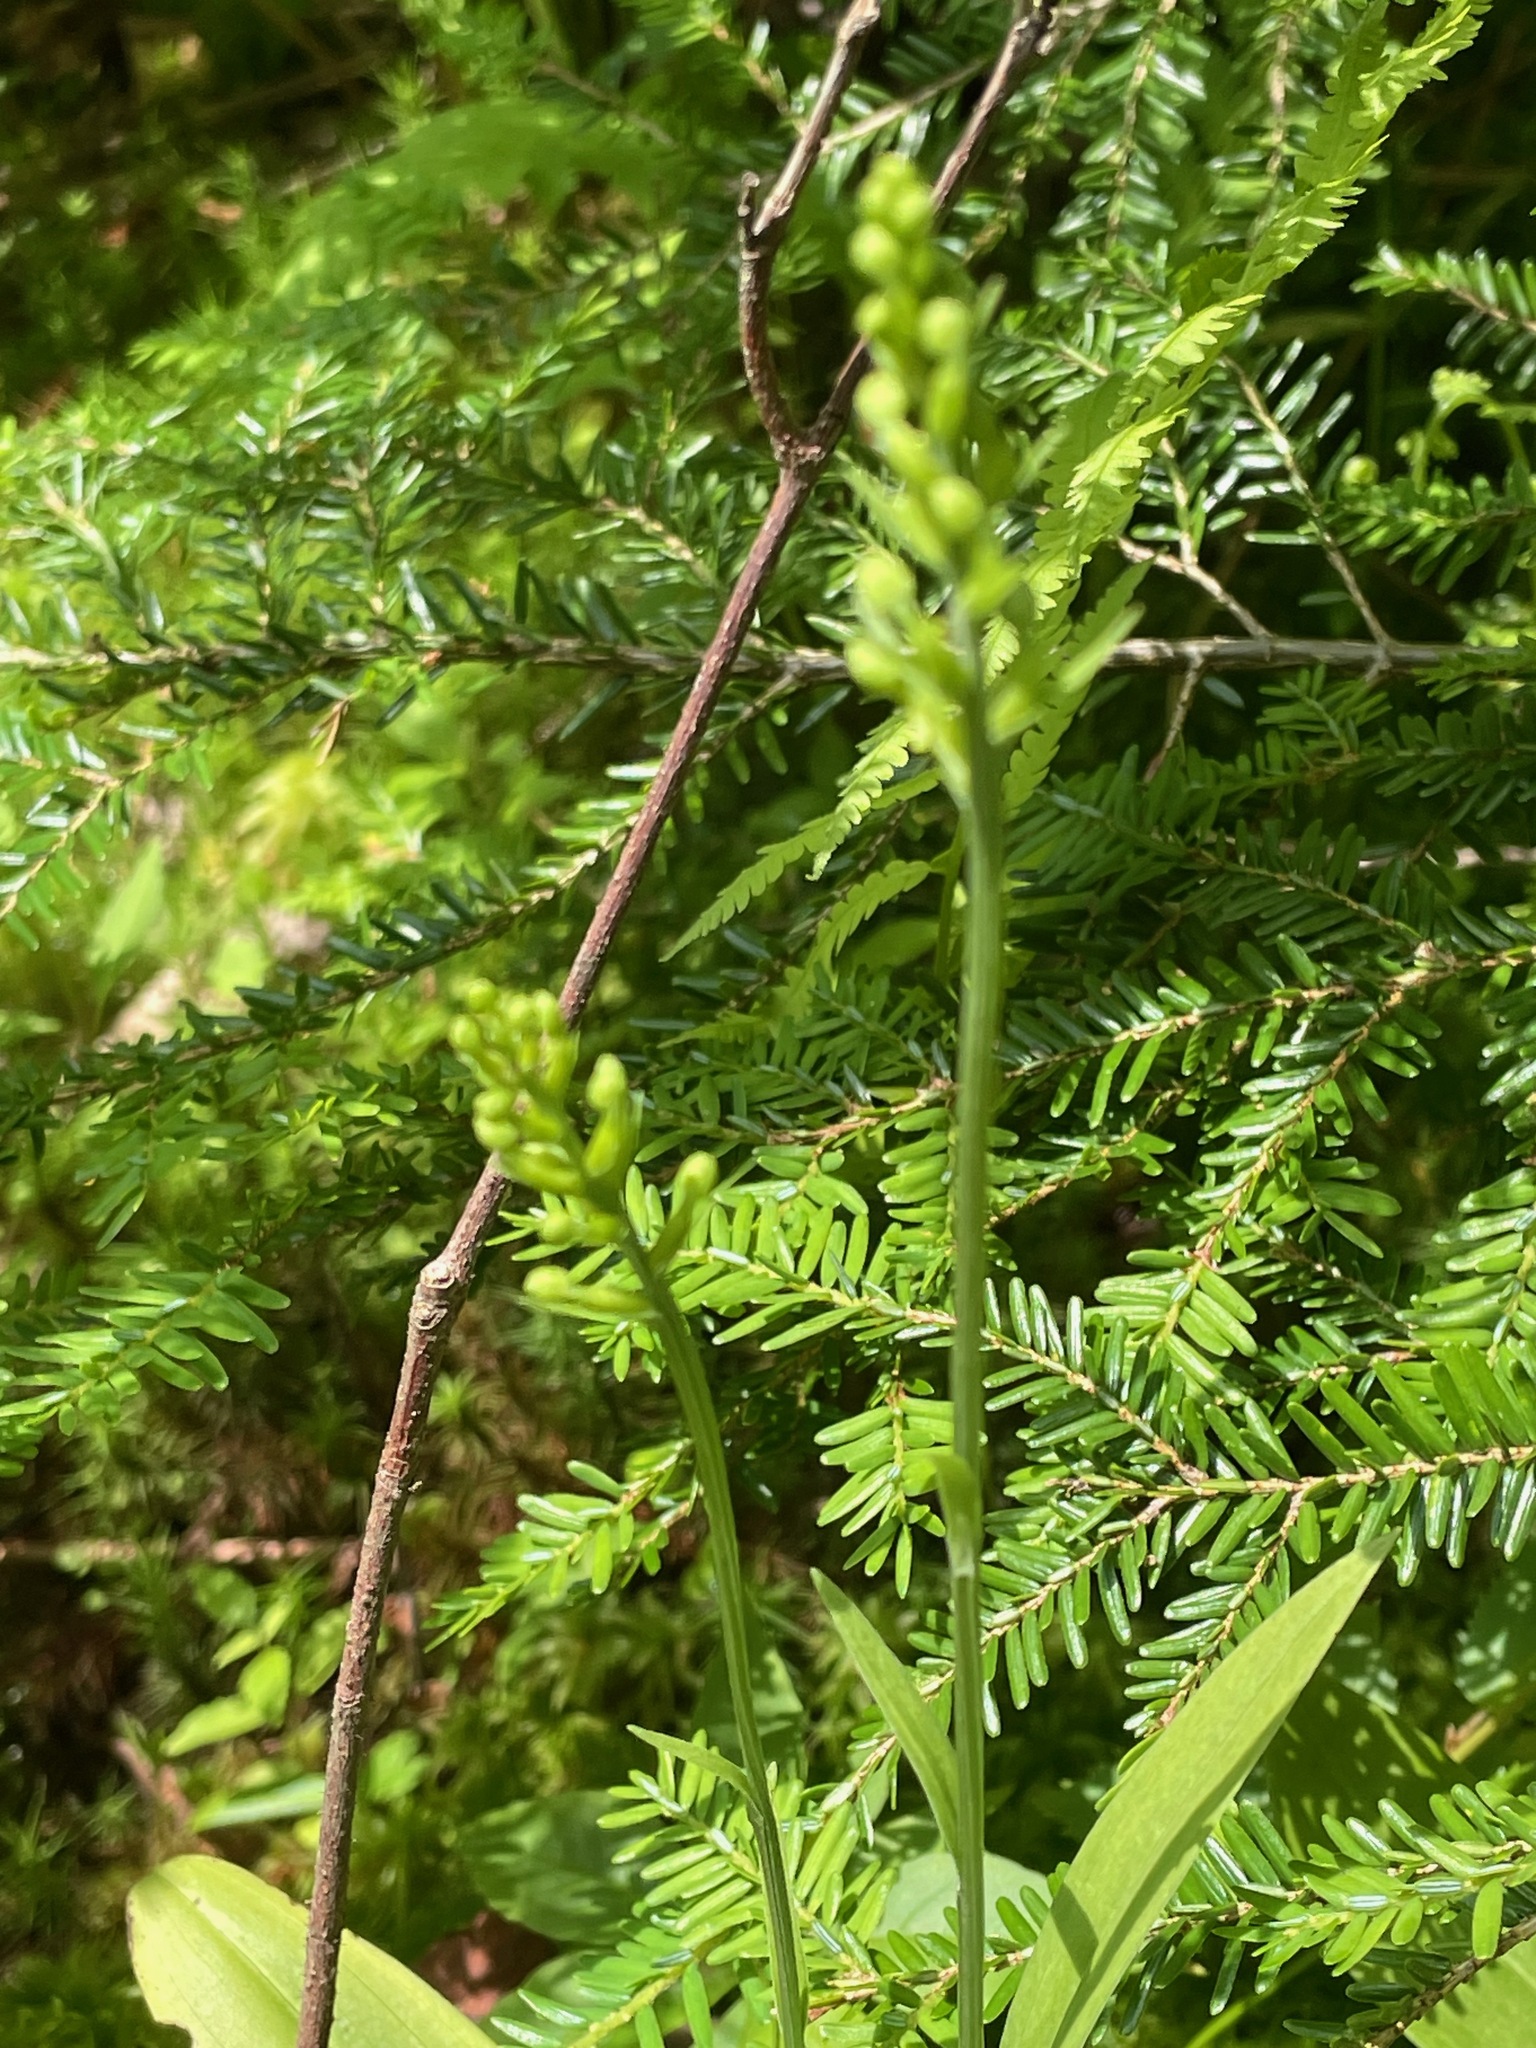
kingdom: Plantae
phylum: Tracheophyta
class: Liliopsida
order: Asparagales
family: Orchidaceae
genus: Platanthera
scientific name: Platanthera clavellata
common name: Club-spur orchid
